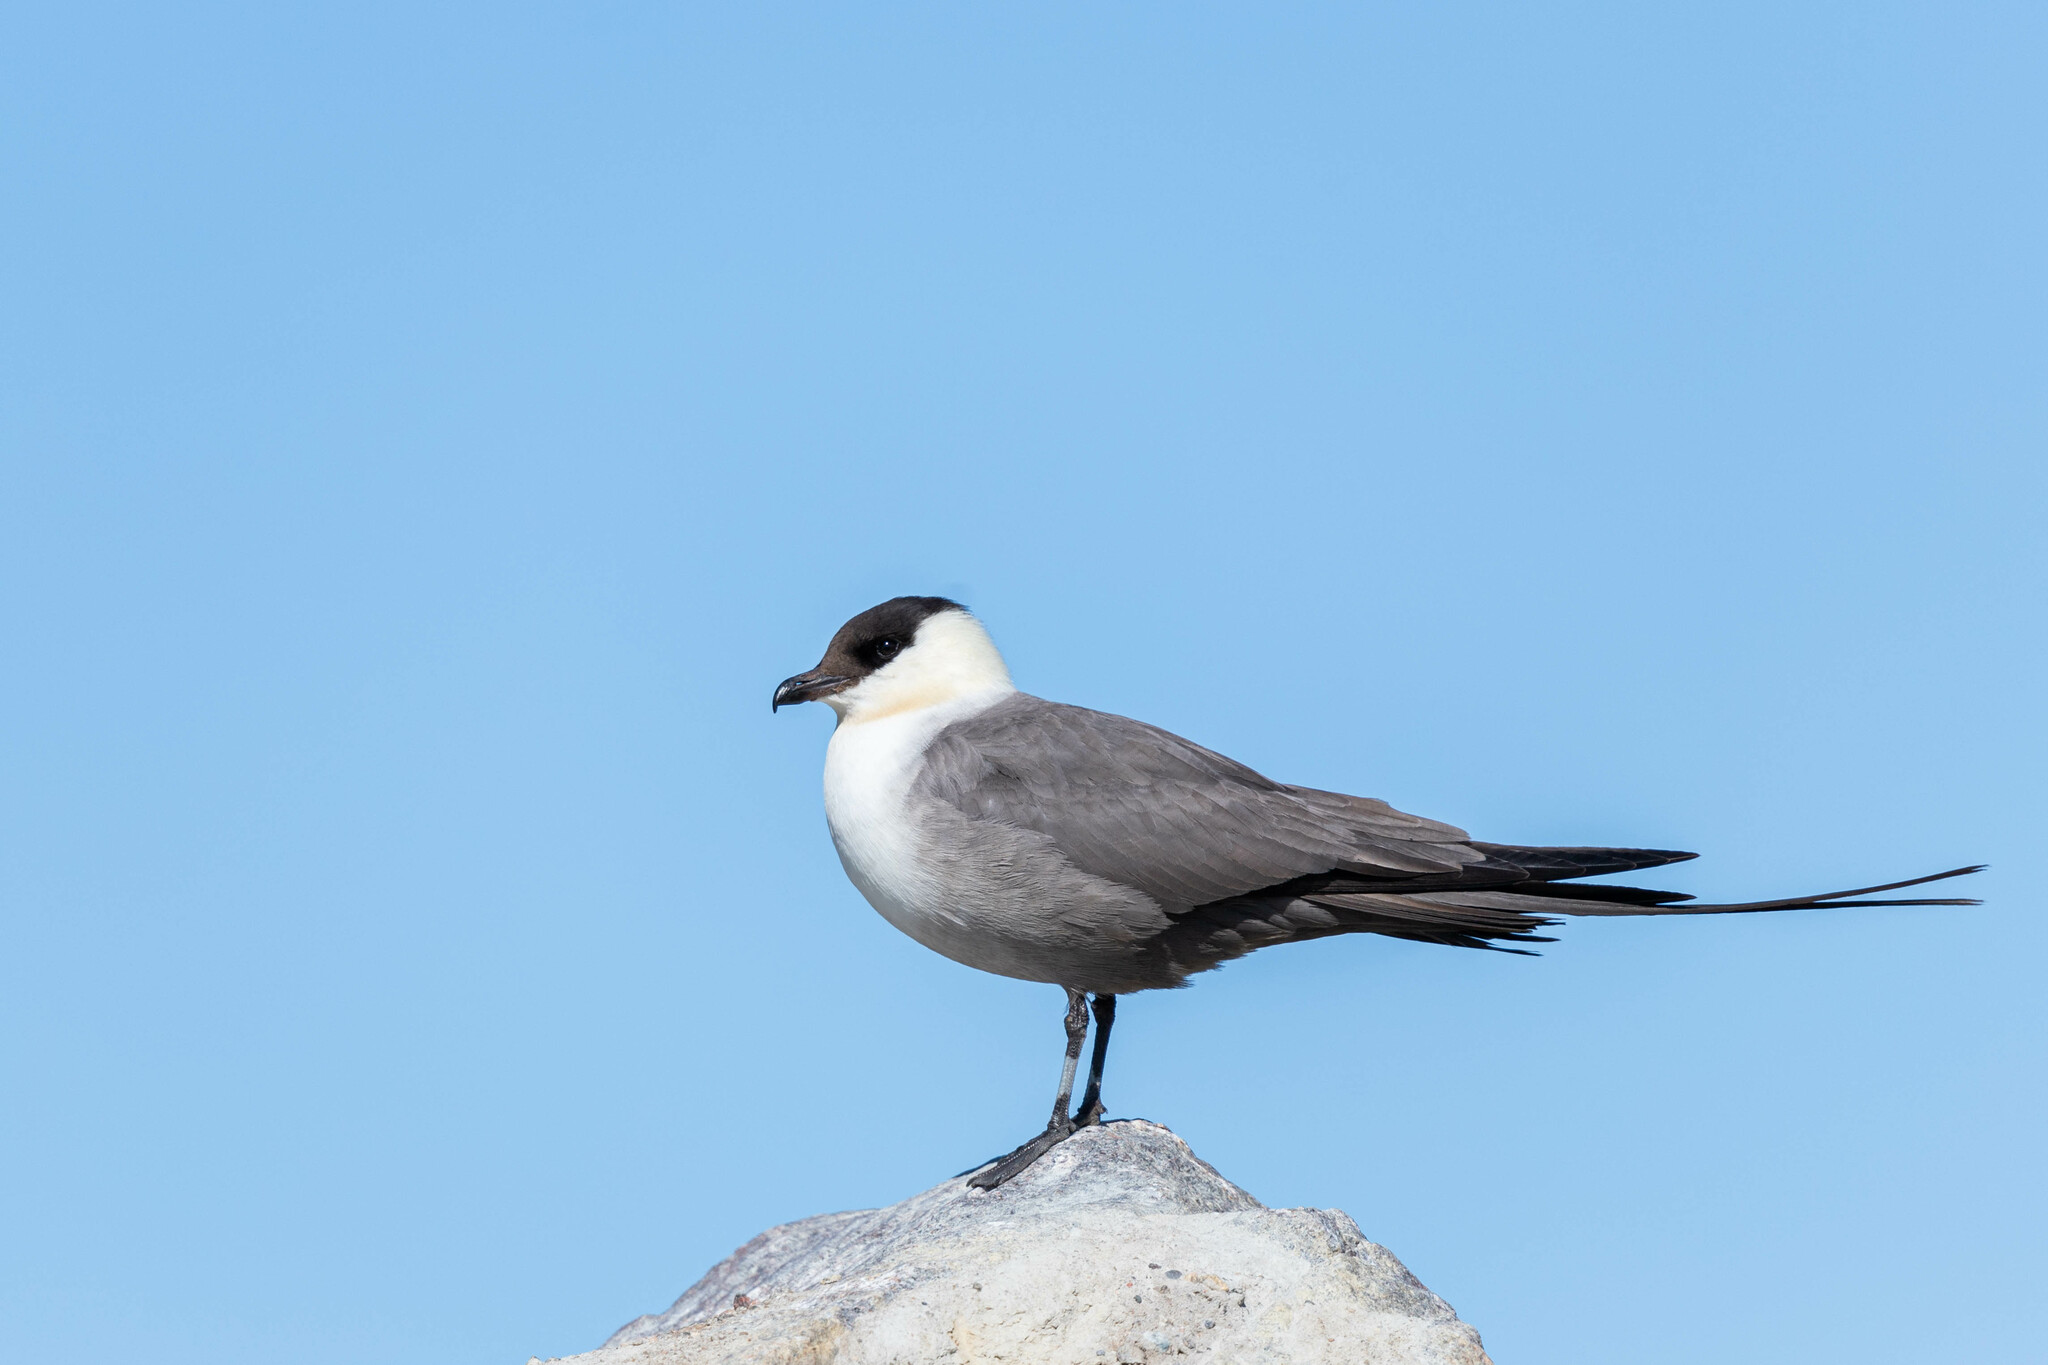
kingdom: Animalia
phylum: Chordata
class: Aves
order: Charadriiformes
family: Stercorariidae
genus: Stercorarius
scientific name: Stercorarius longicaudus
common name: Long-tailed jaeger
